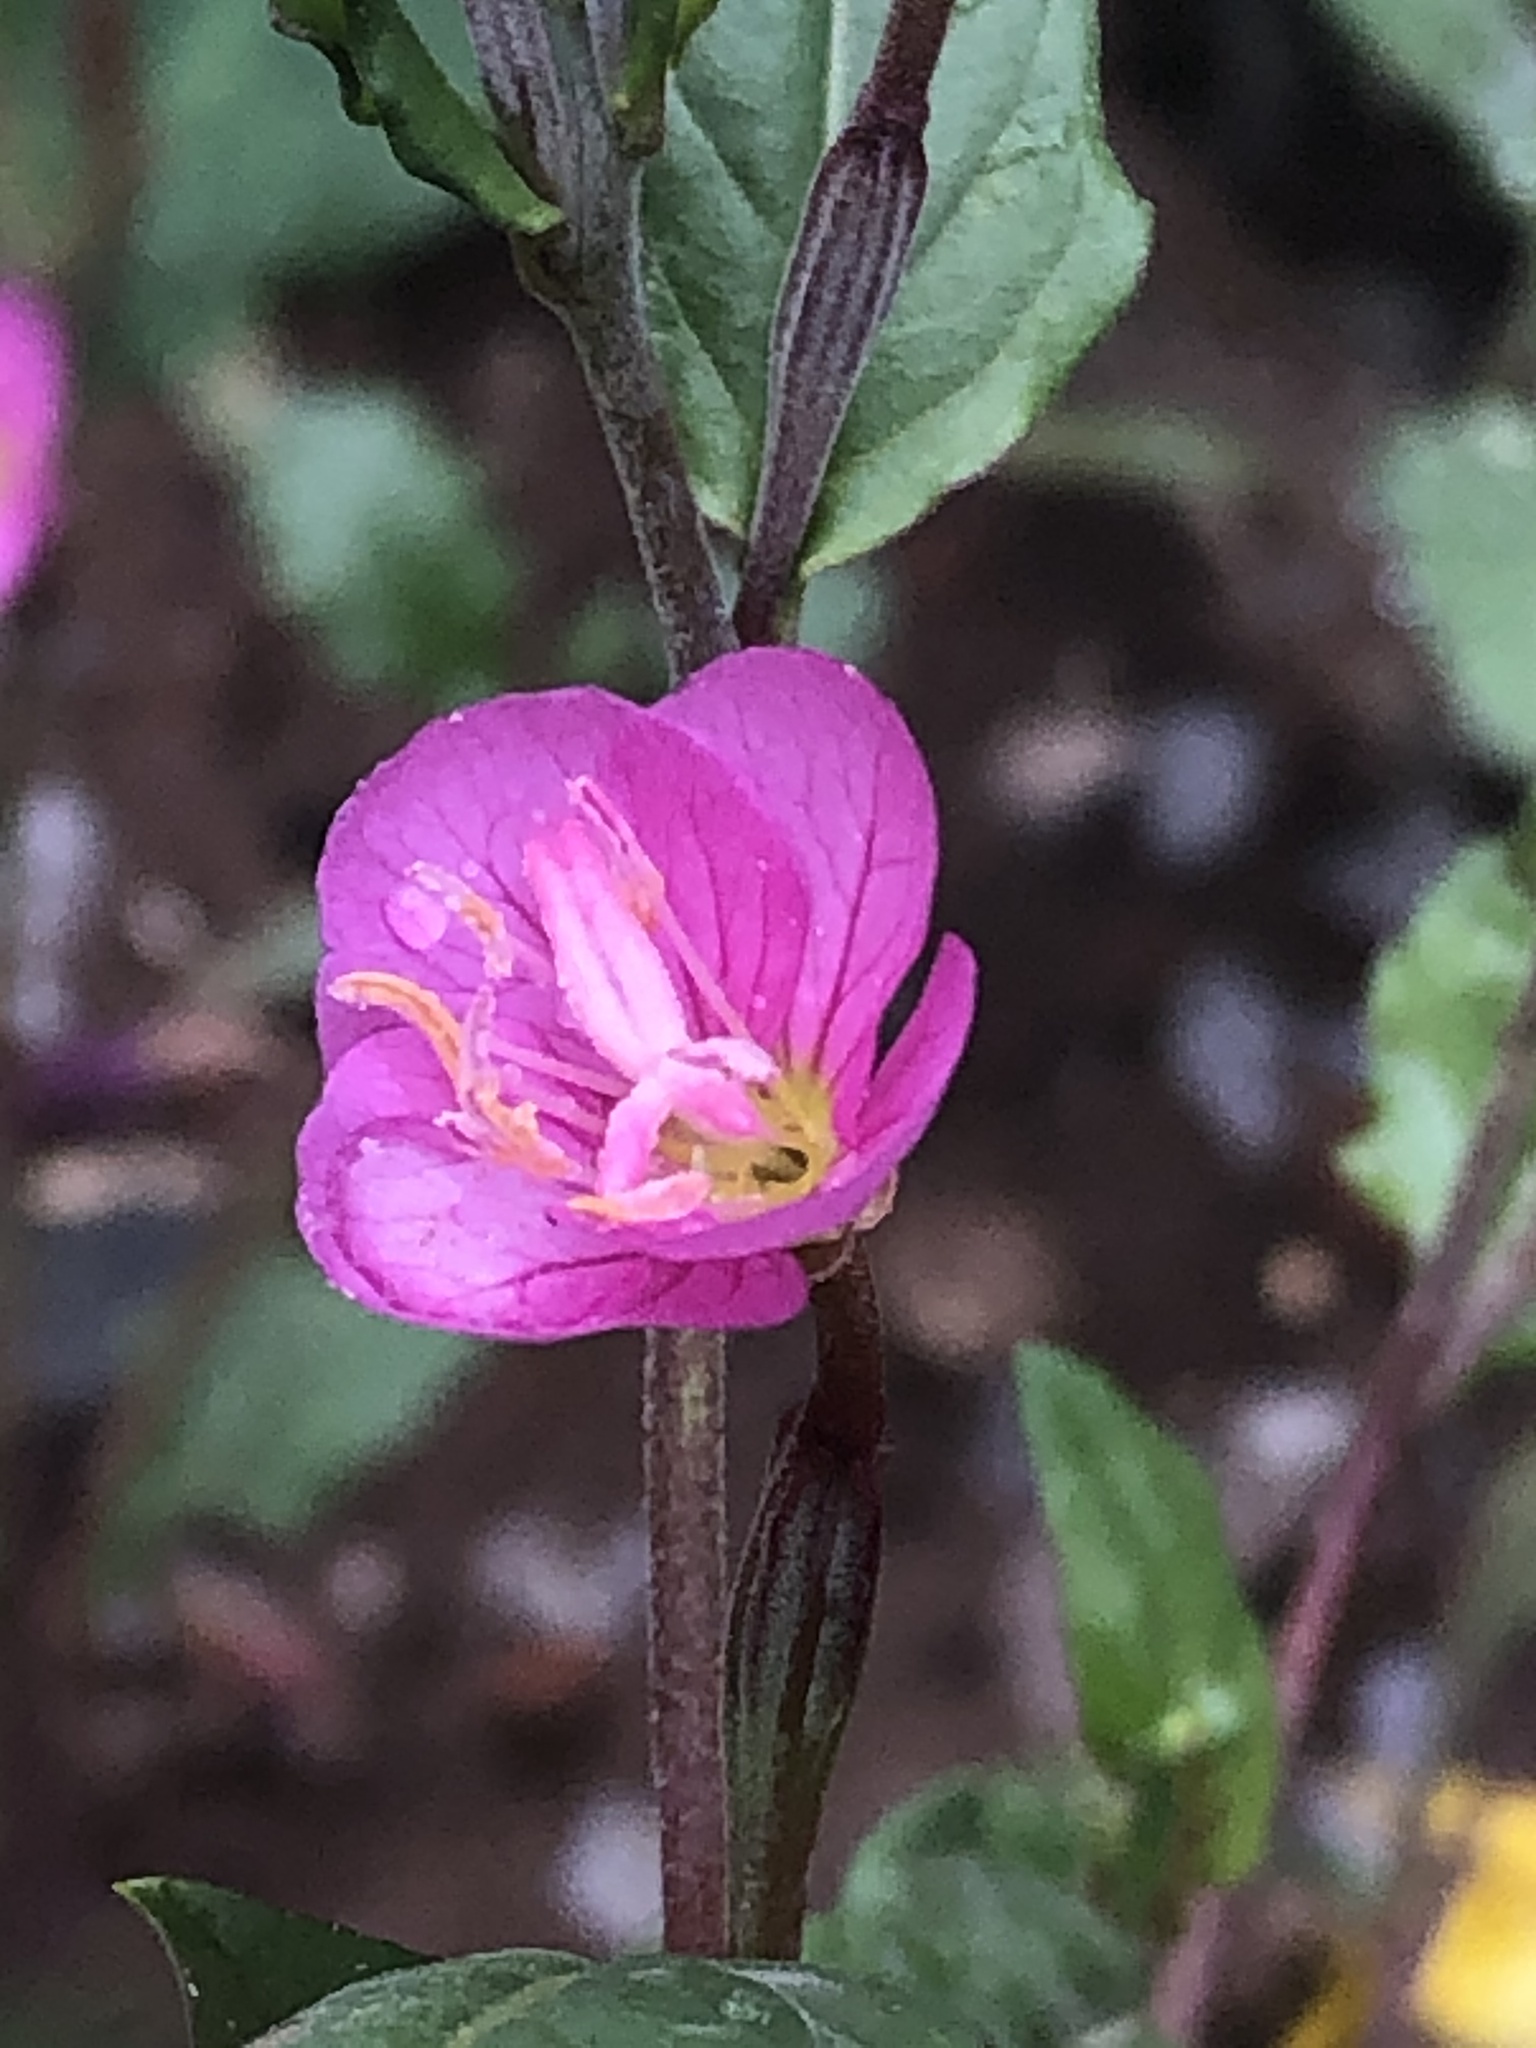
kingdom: Plantae
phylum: Tracheophyta
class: Magnoliopsida
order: Myrtales
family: Onagraceae
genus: Oenothera
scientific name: Oenothera rosea
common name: Rosy evening-primrose
